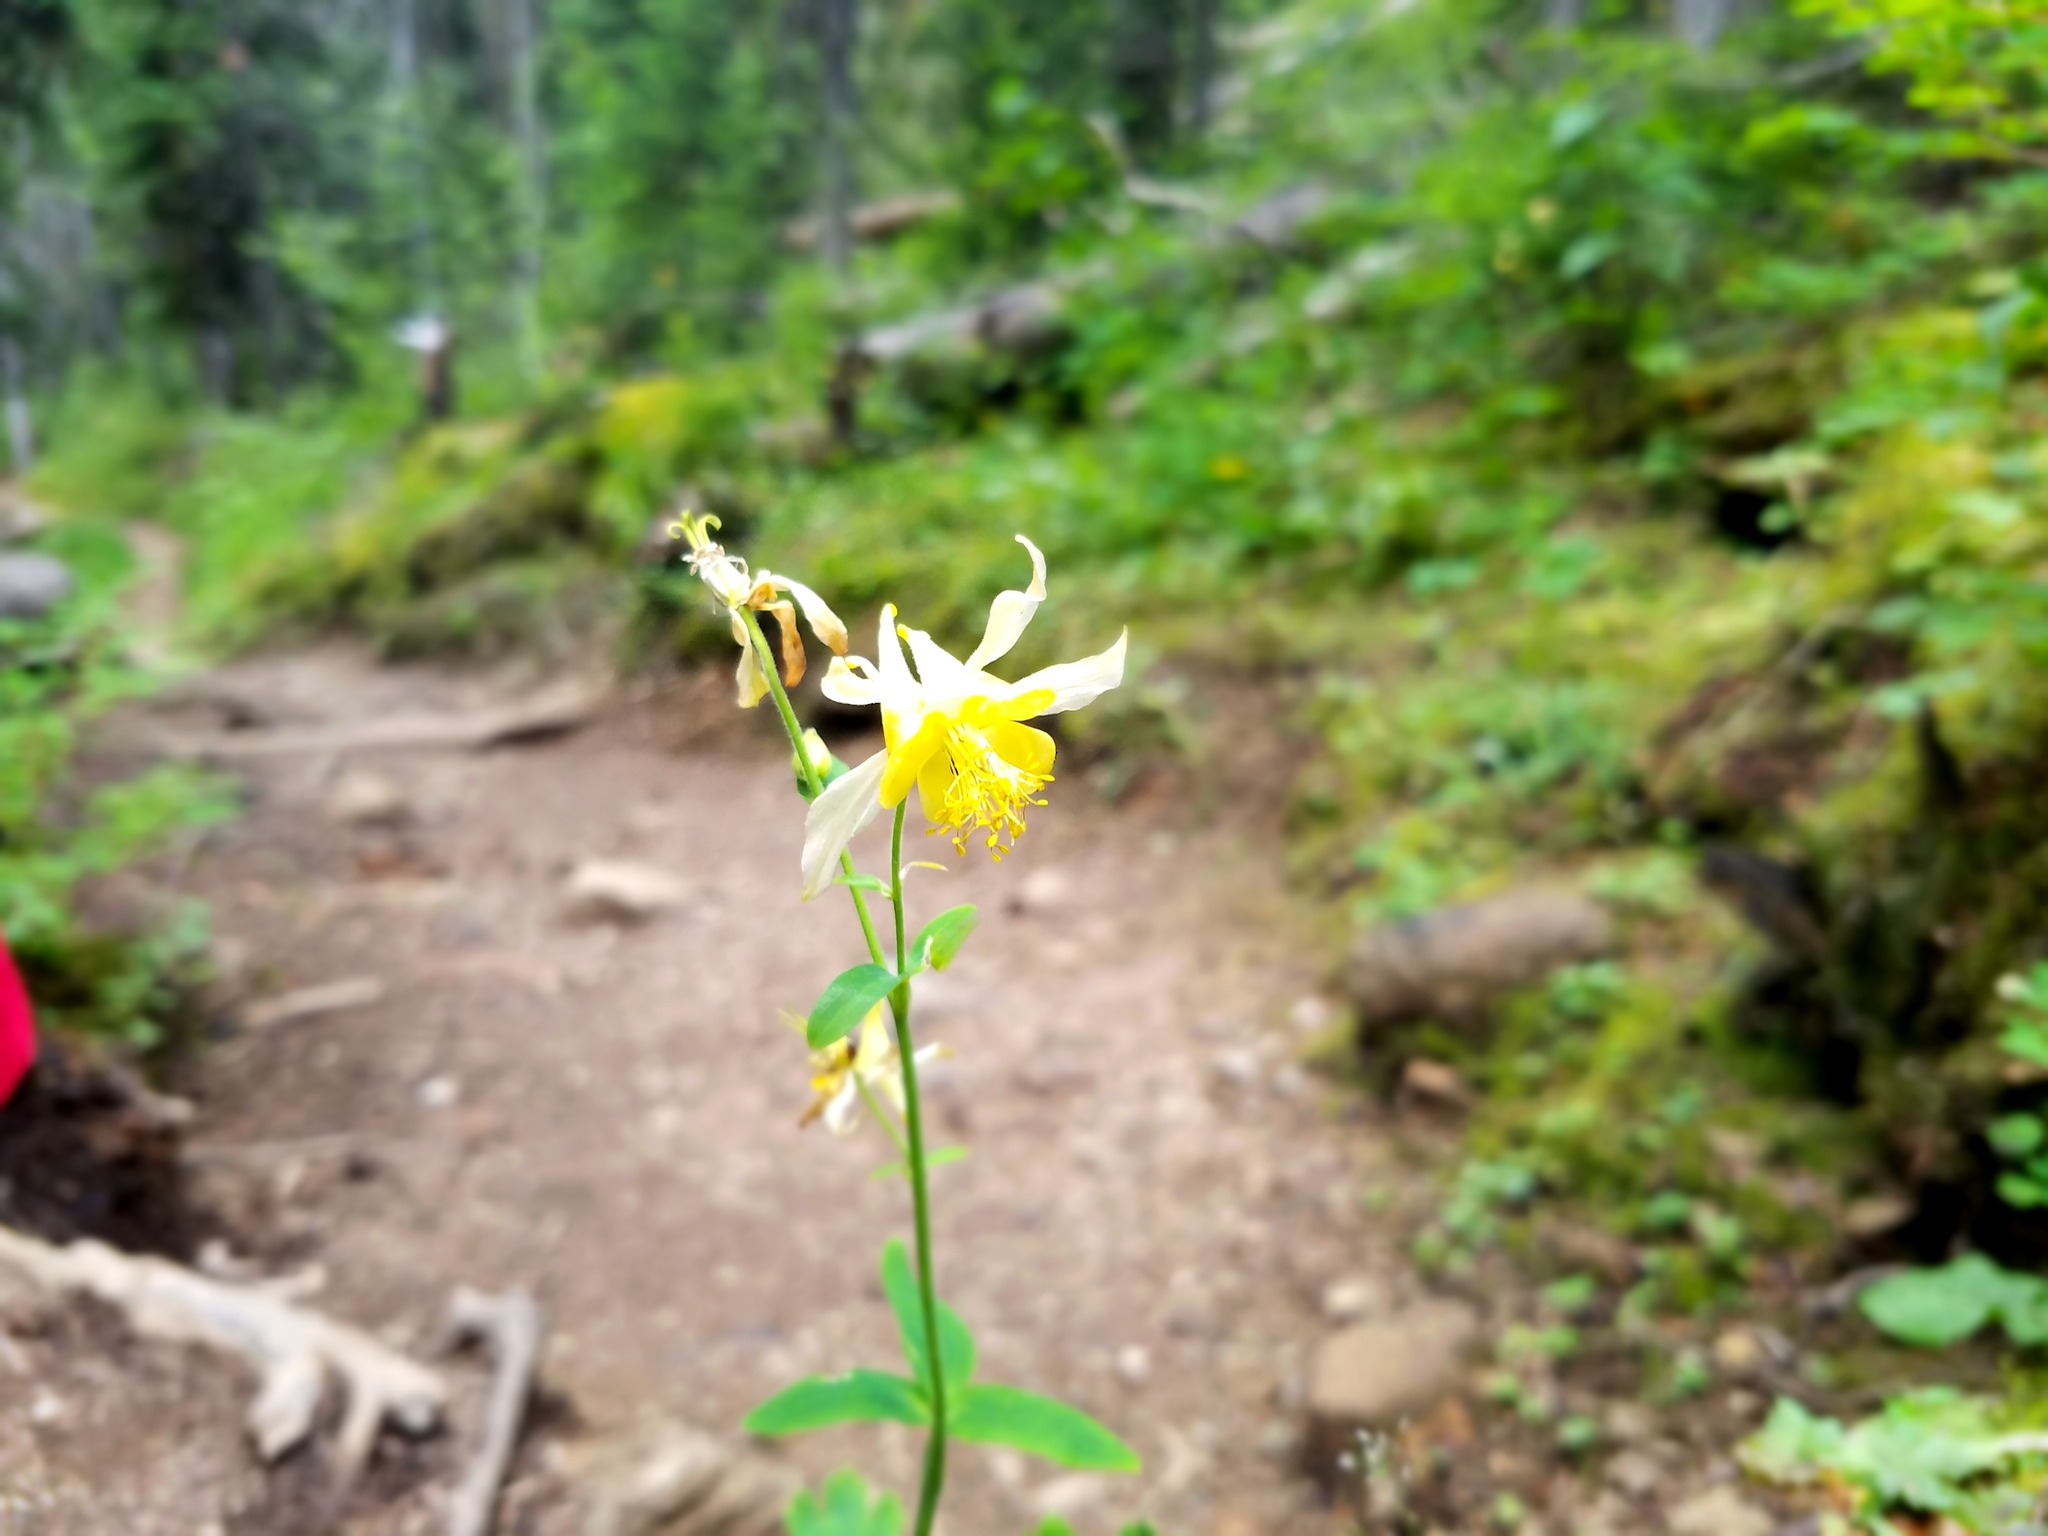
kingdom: Plantae
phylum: Tracheophyta
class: Magnoliopsida
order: Ranunculales
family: Ranunculaceae
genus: Aquilegia
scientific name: Aquilegia flavescens
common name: Yellow columbine
